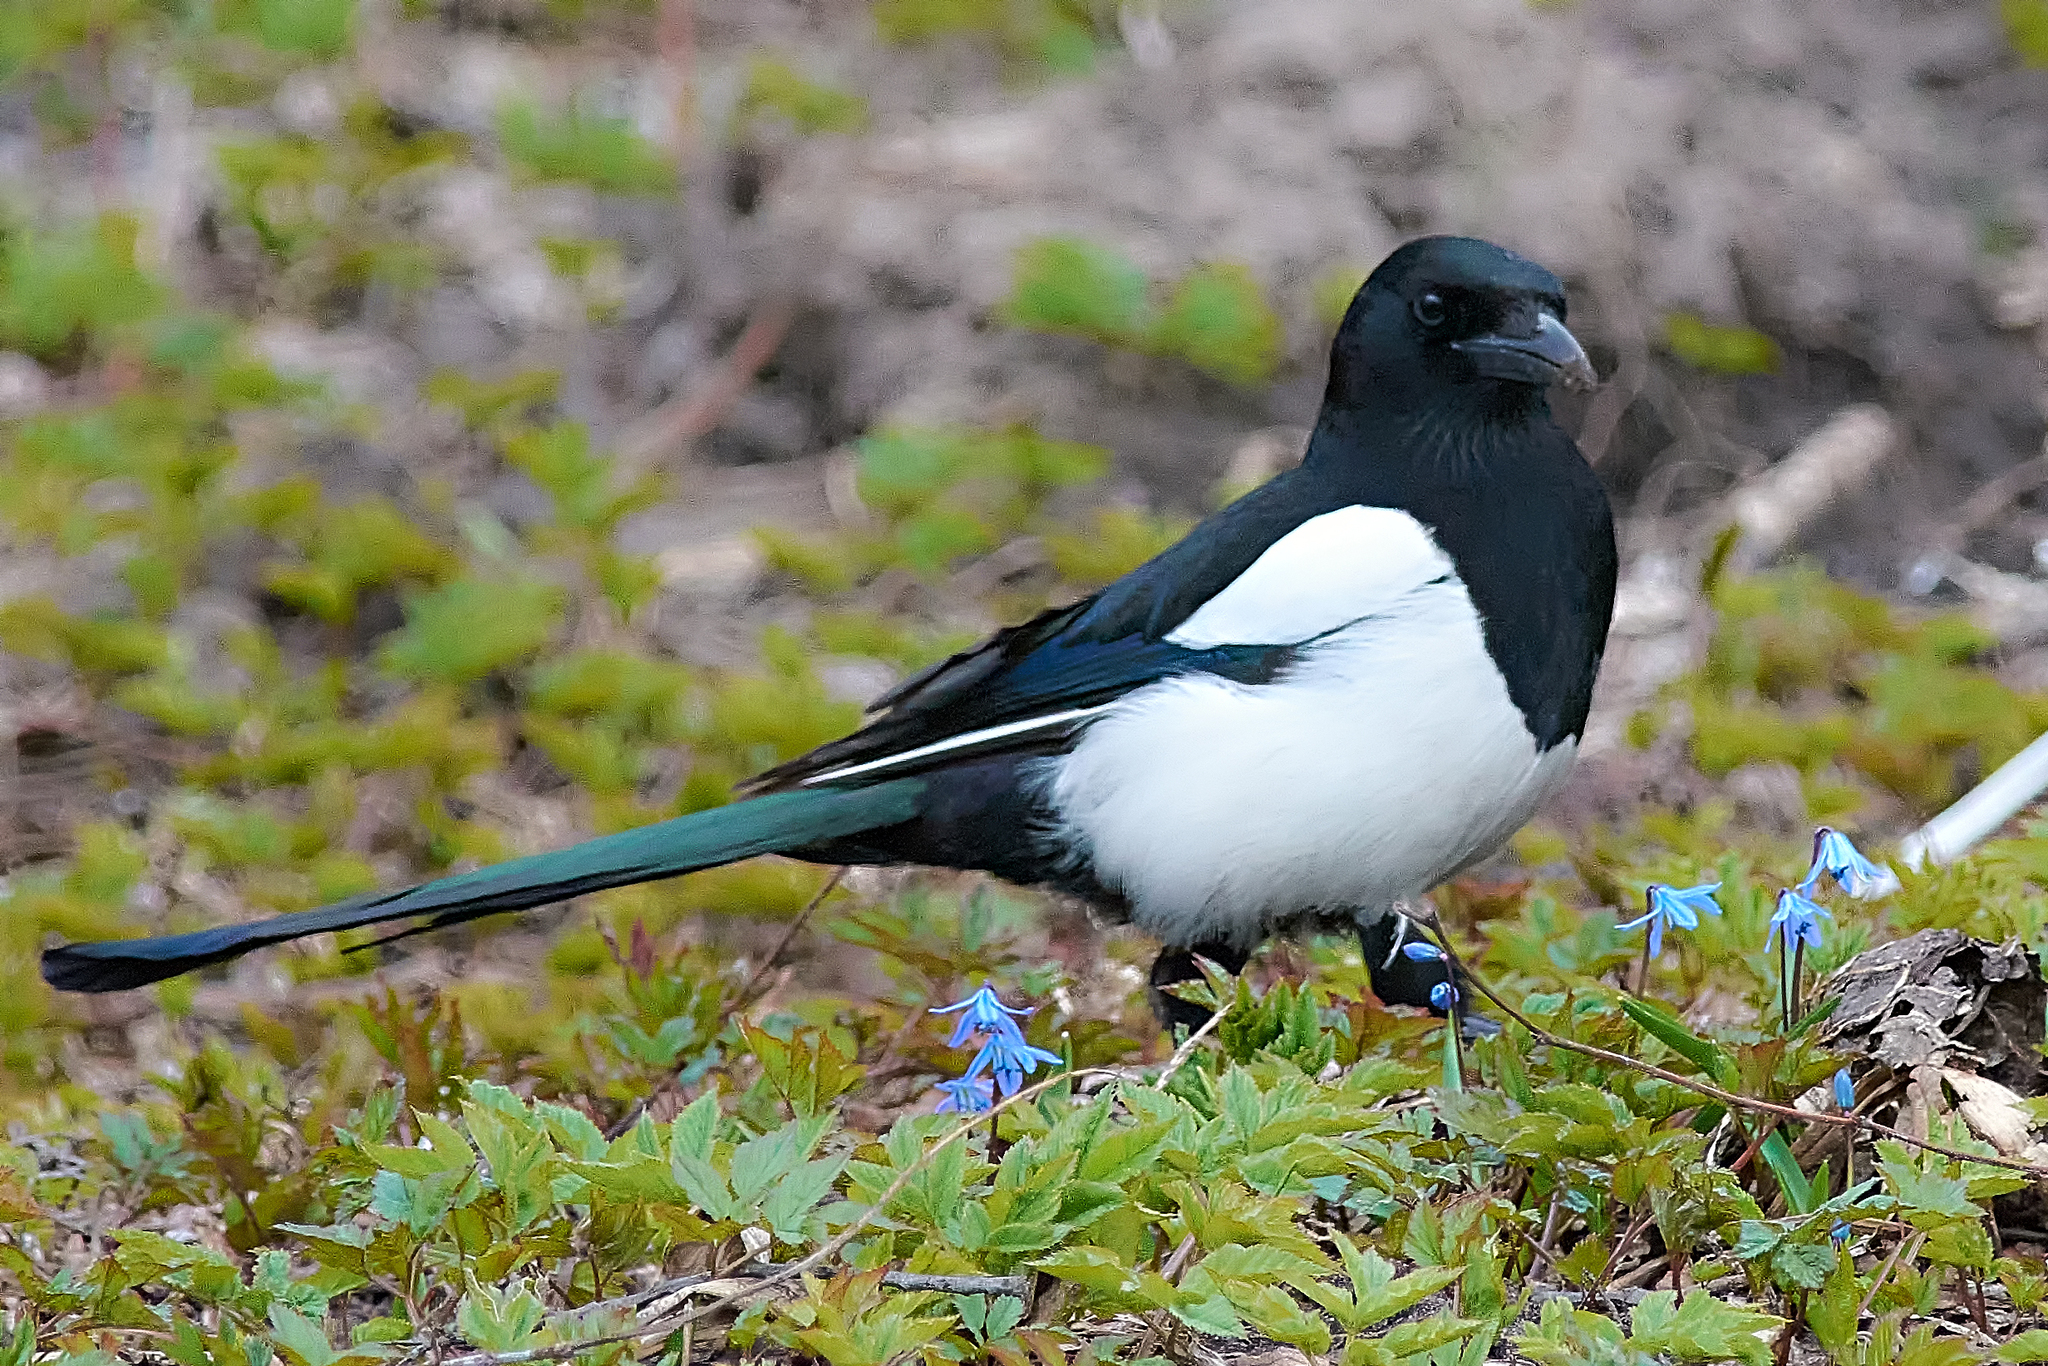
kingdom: Animalia
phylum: Chordata
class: Aves
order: Passeriformes
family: Corvidae
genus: Pica
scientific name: Pica pica
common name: Eurasian magpie
